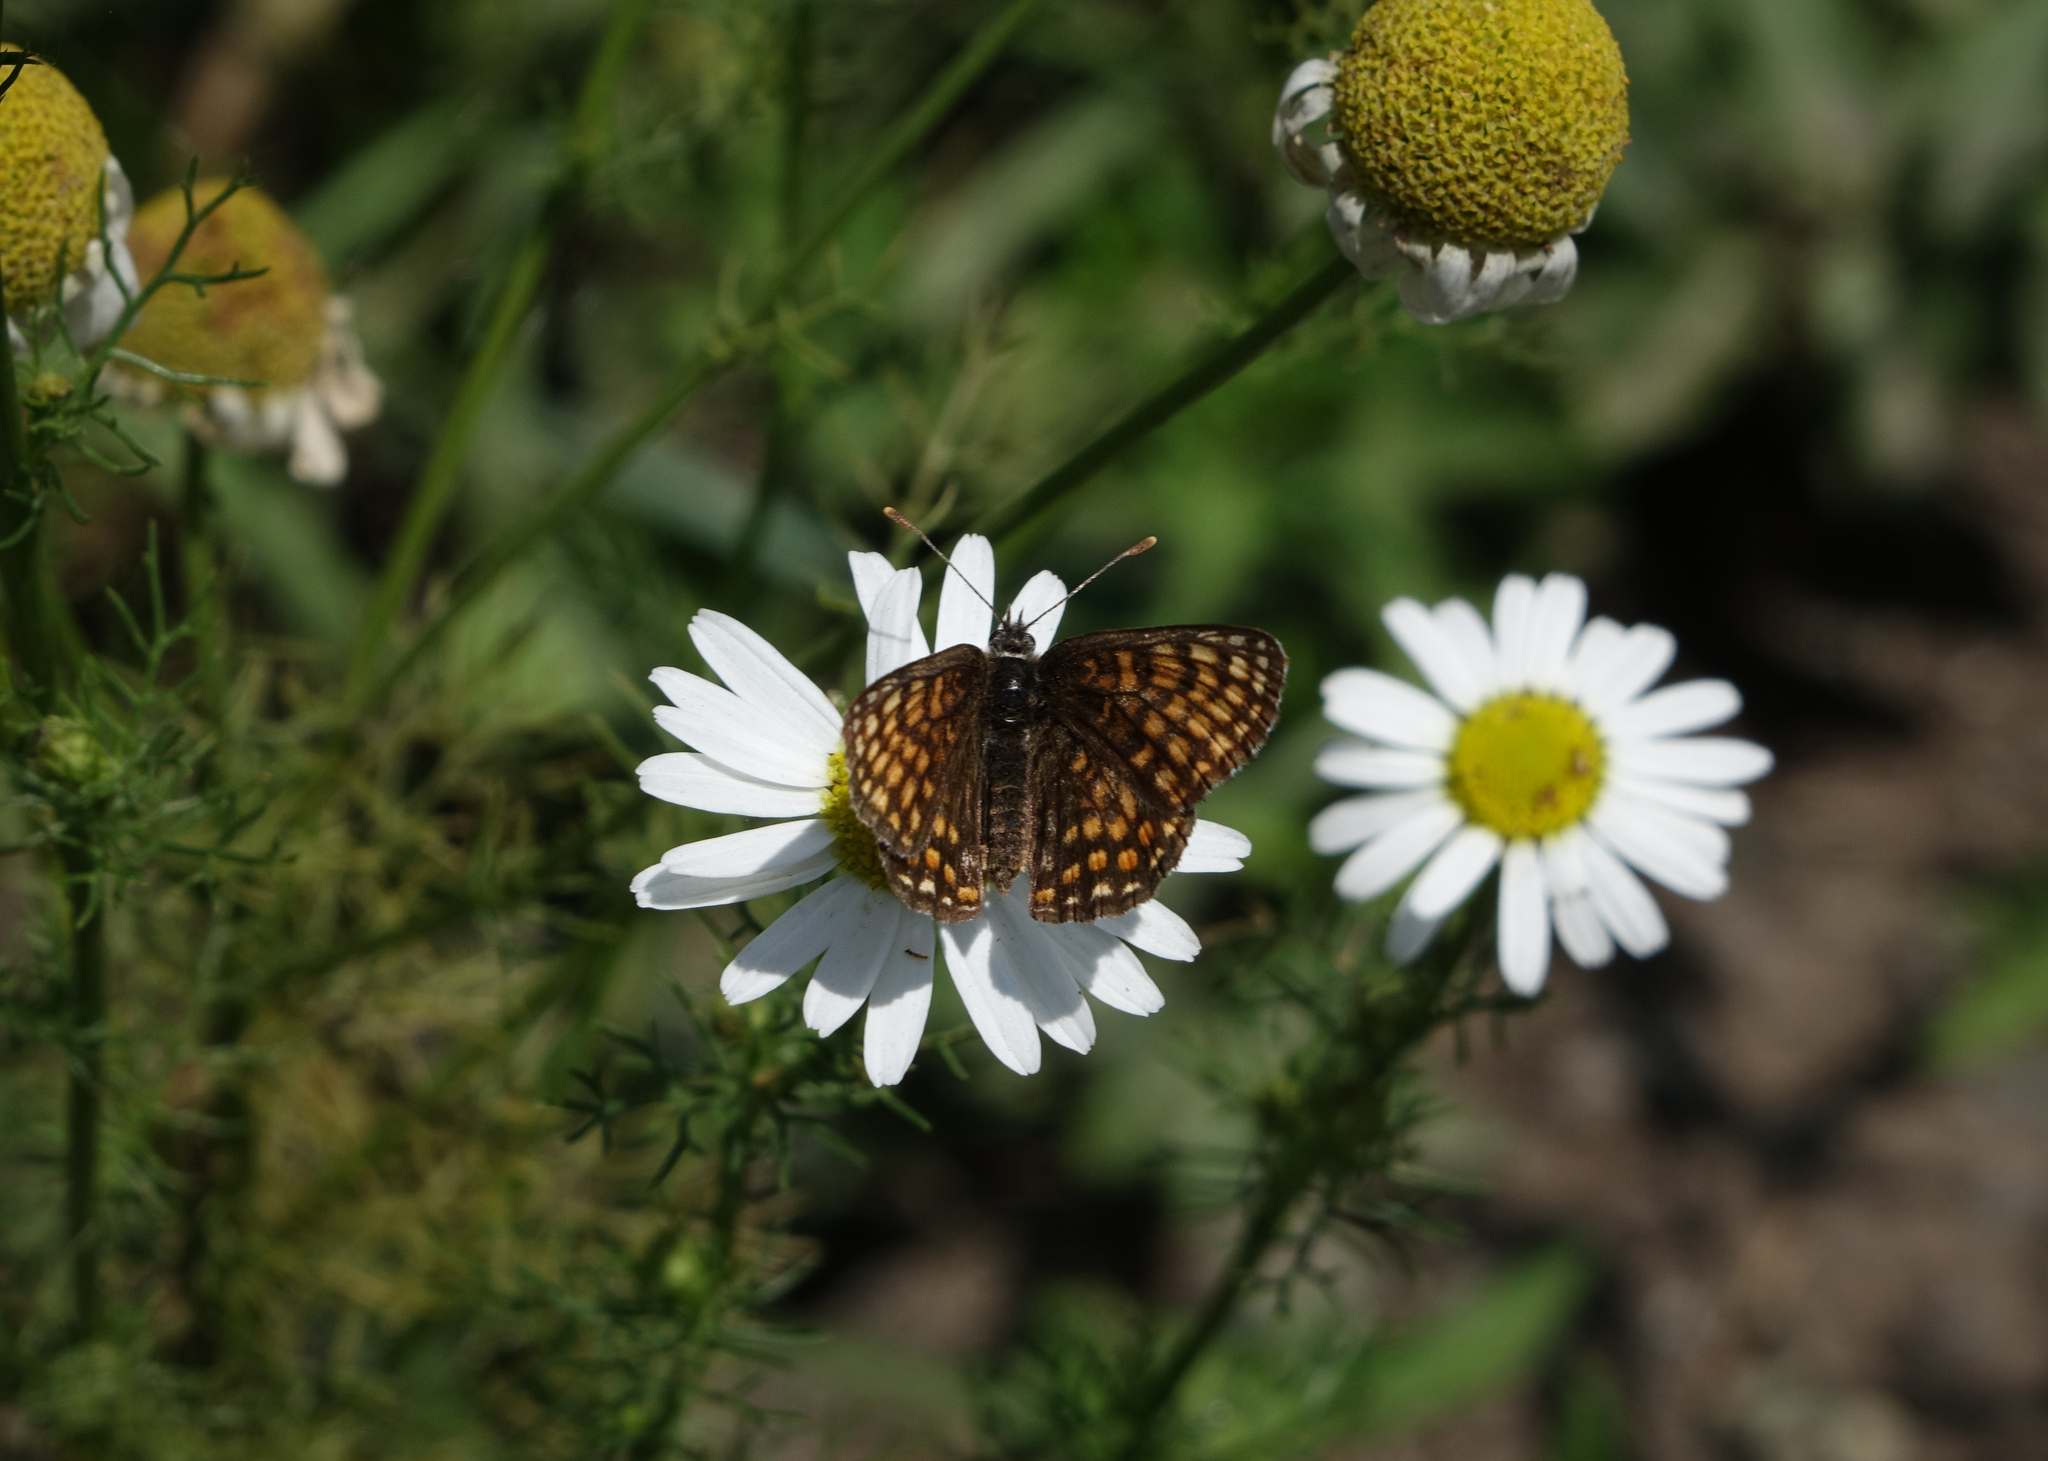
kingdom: Plantae
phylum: Tracheophyta
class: Magnoliopsida
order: Asterales
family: Asteraceae
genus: Tripleurospermum
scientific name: Tripleurospermum inodorum
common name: Scentless mayweed
